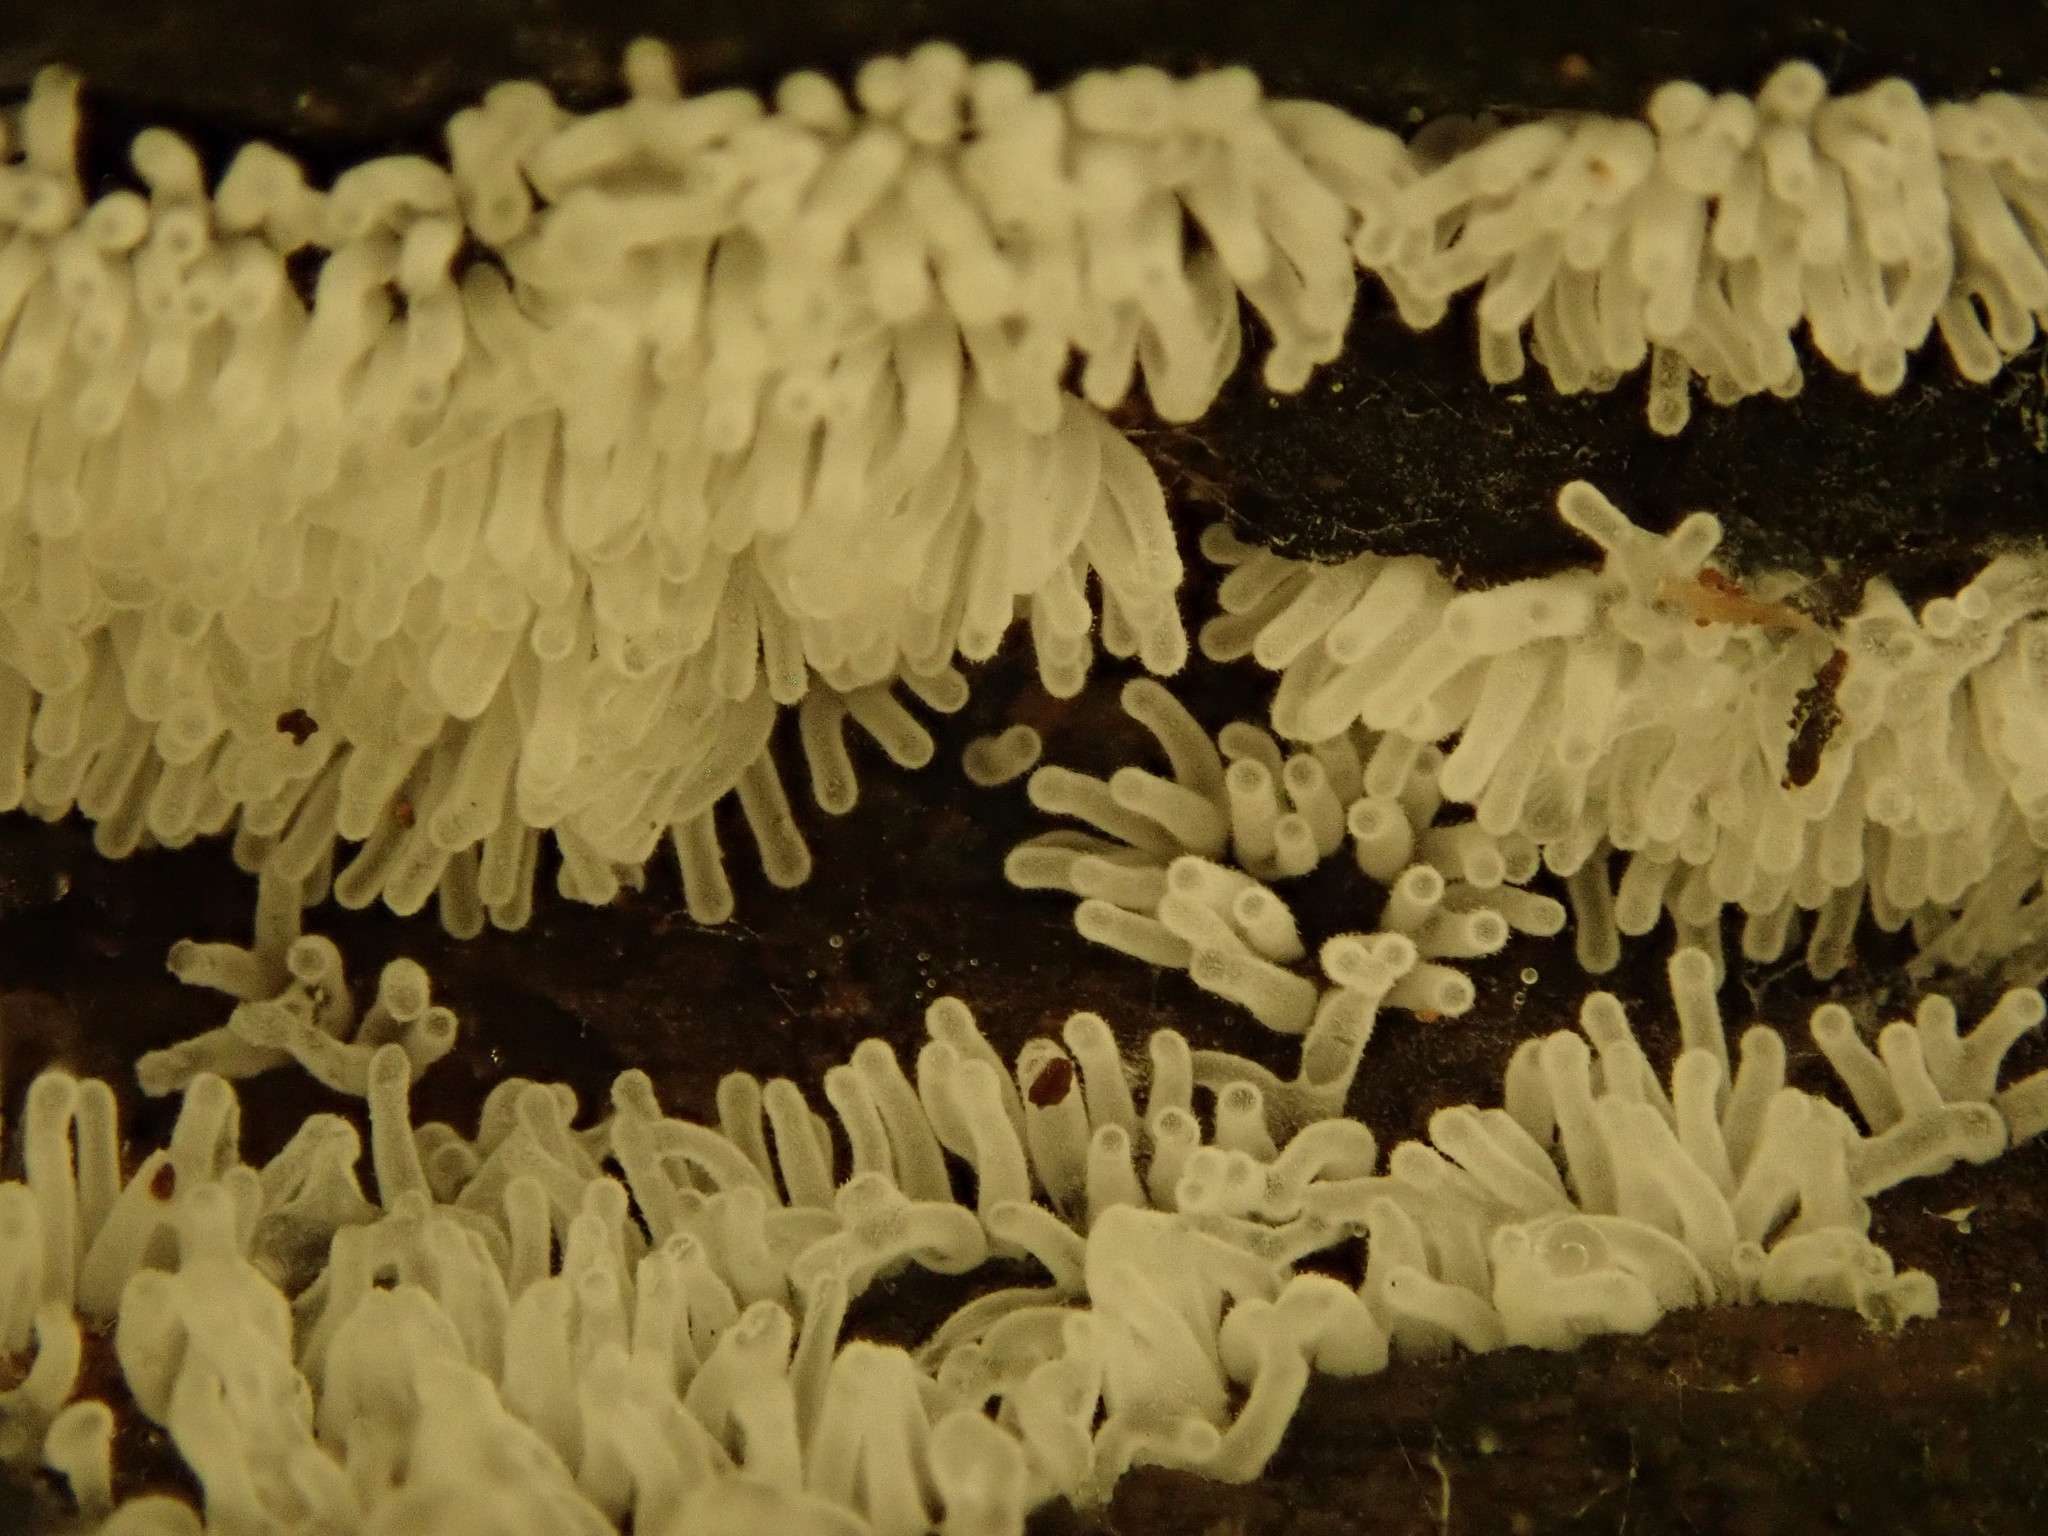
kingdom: Protozoa
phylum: Mycetozoa
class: Protosteliomycetes
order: Ceratiomyxales
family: Ceratiomyxaceae
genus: Ceratiomyxa
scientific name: Ceratiomyxa fruticulosa
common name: Honeycomb coral slime mold
